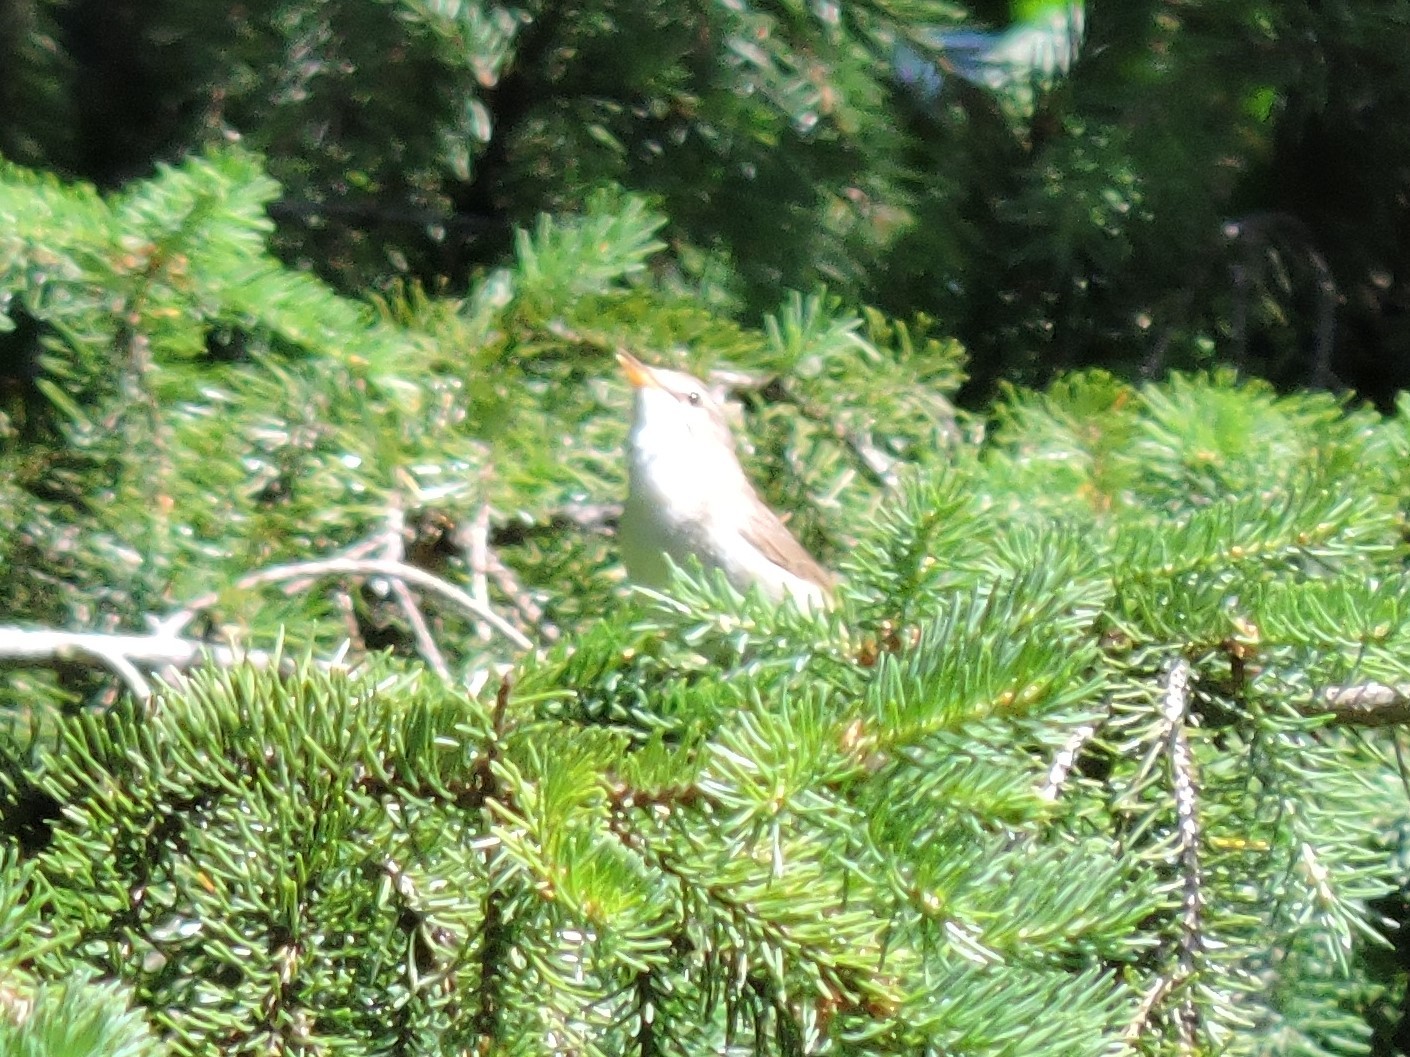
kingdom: Animalia
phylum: Chordata
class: Aves
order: Passeriformes
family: Acrocephalidae
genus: Acrocephalus
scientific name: Acrocephalus dumetorum
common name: Blyth's reed warbler
